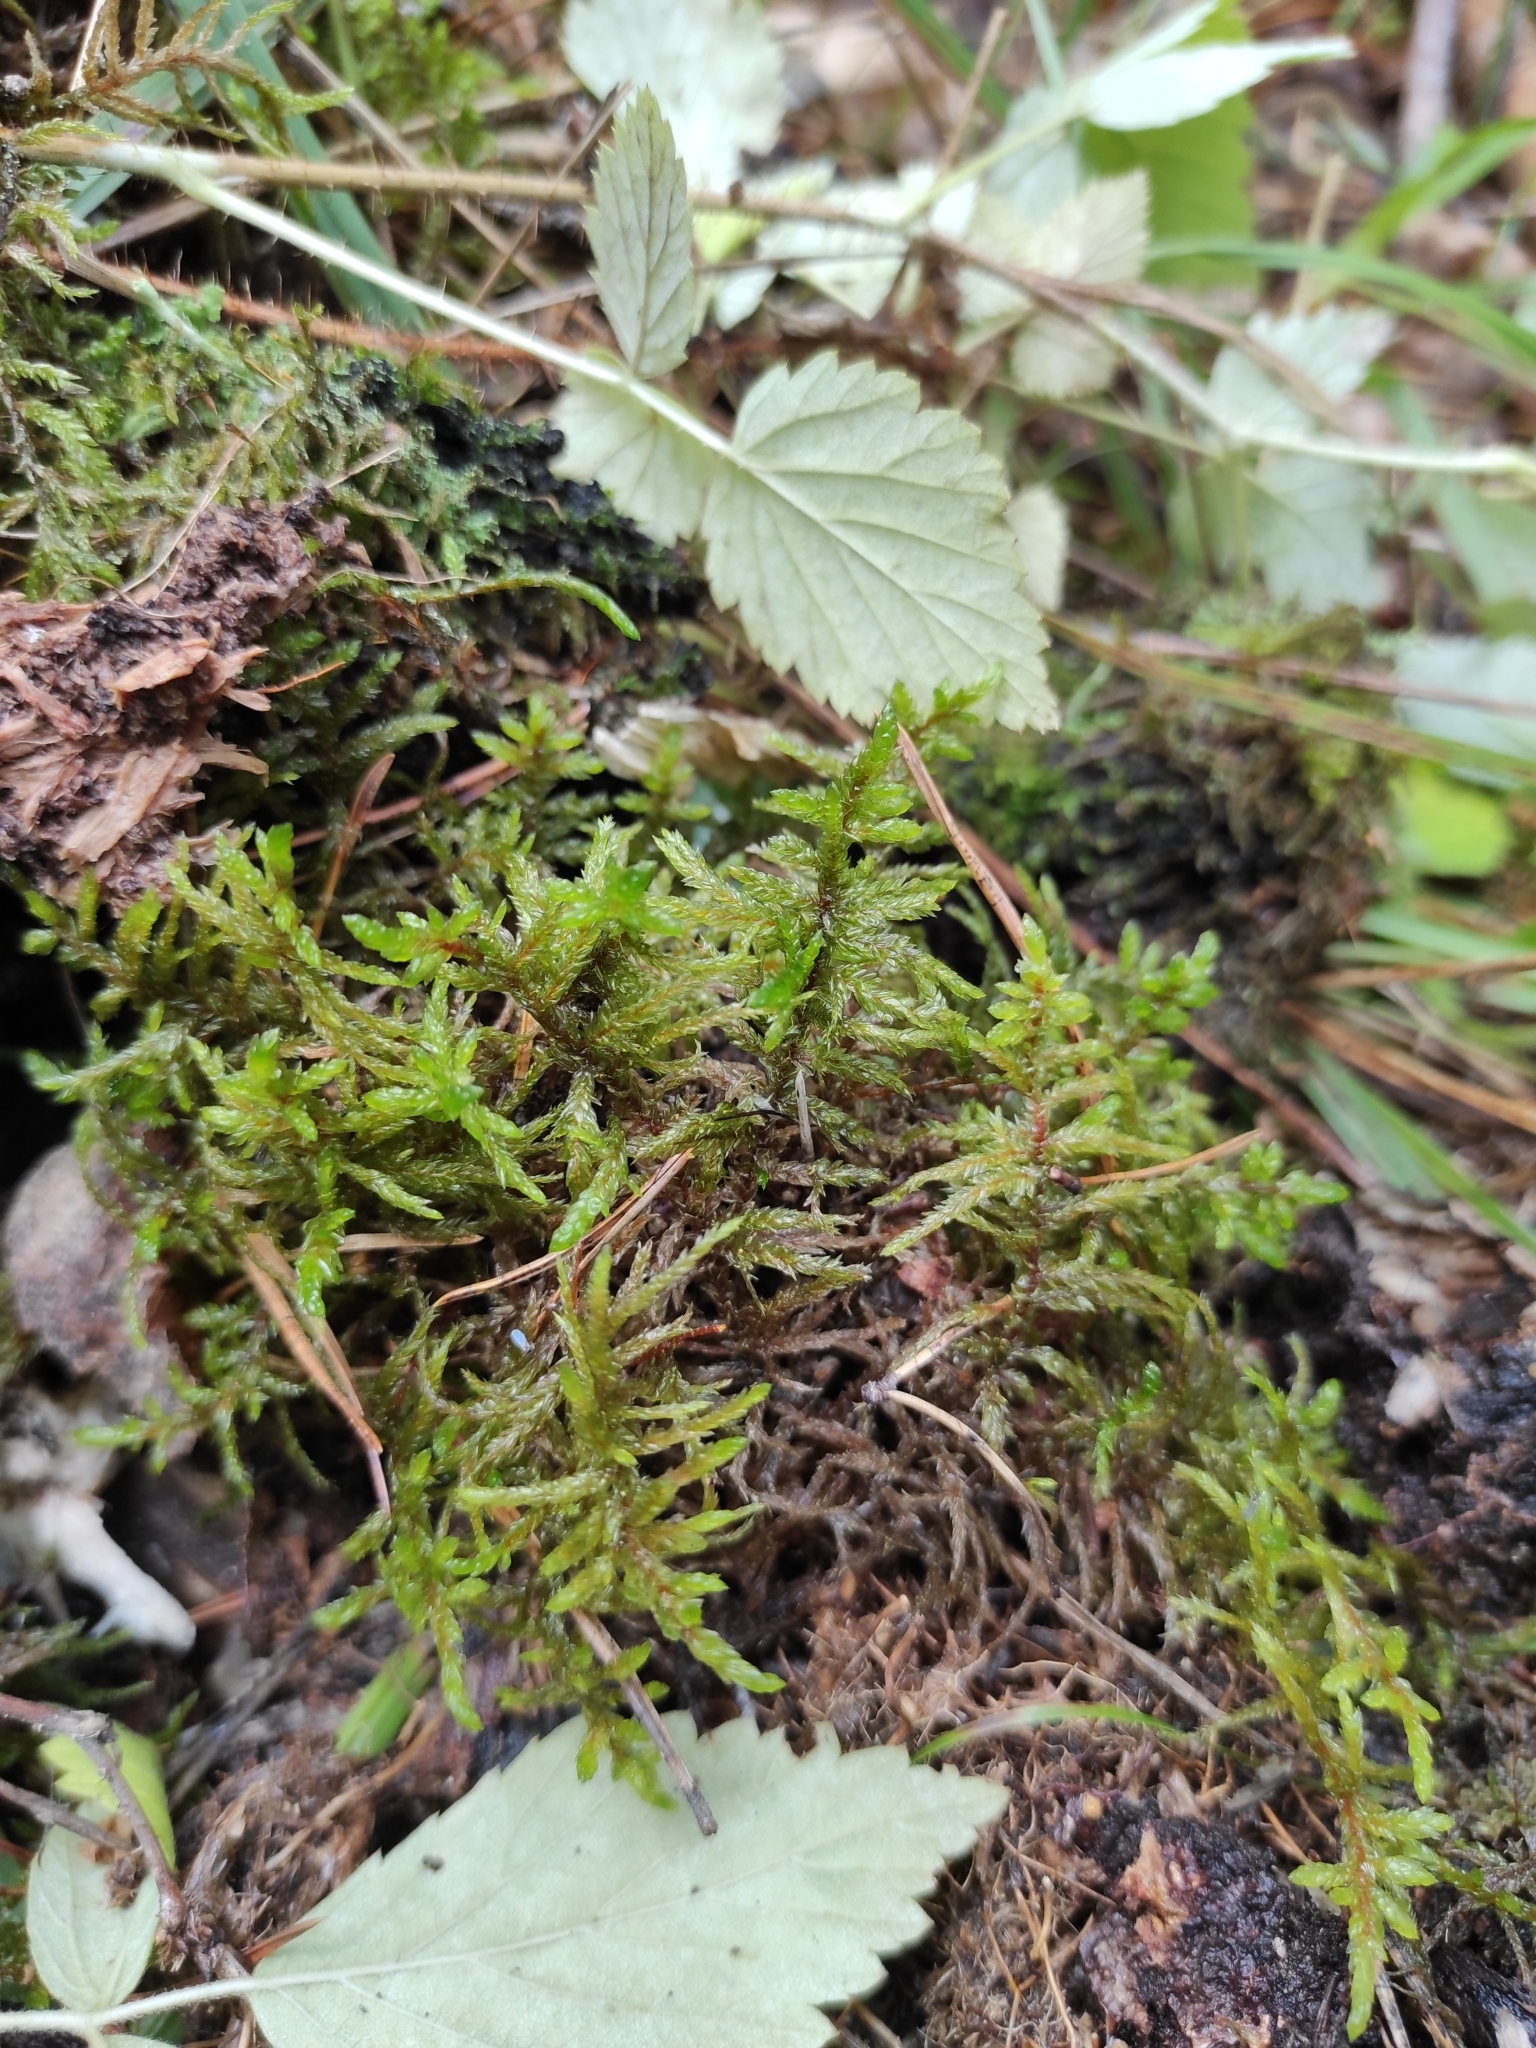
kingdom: Plantae
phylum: Bryophyta
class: Bryopsida
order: Hypnales
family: Hylocomiaceae
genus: Pleurozium
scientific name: Pleurozium schreberi
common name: Red-stemmed feather moss
